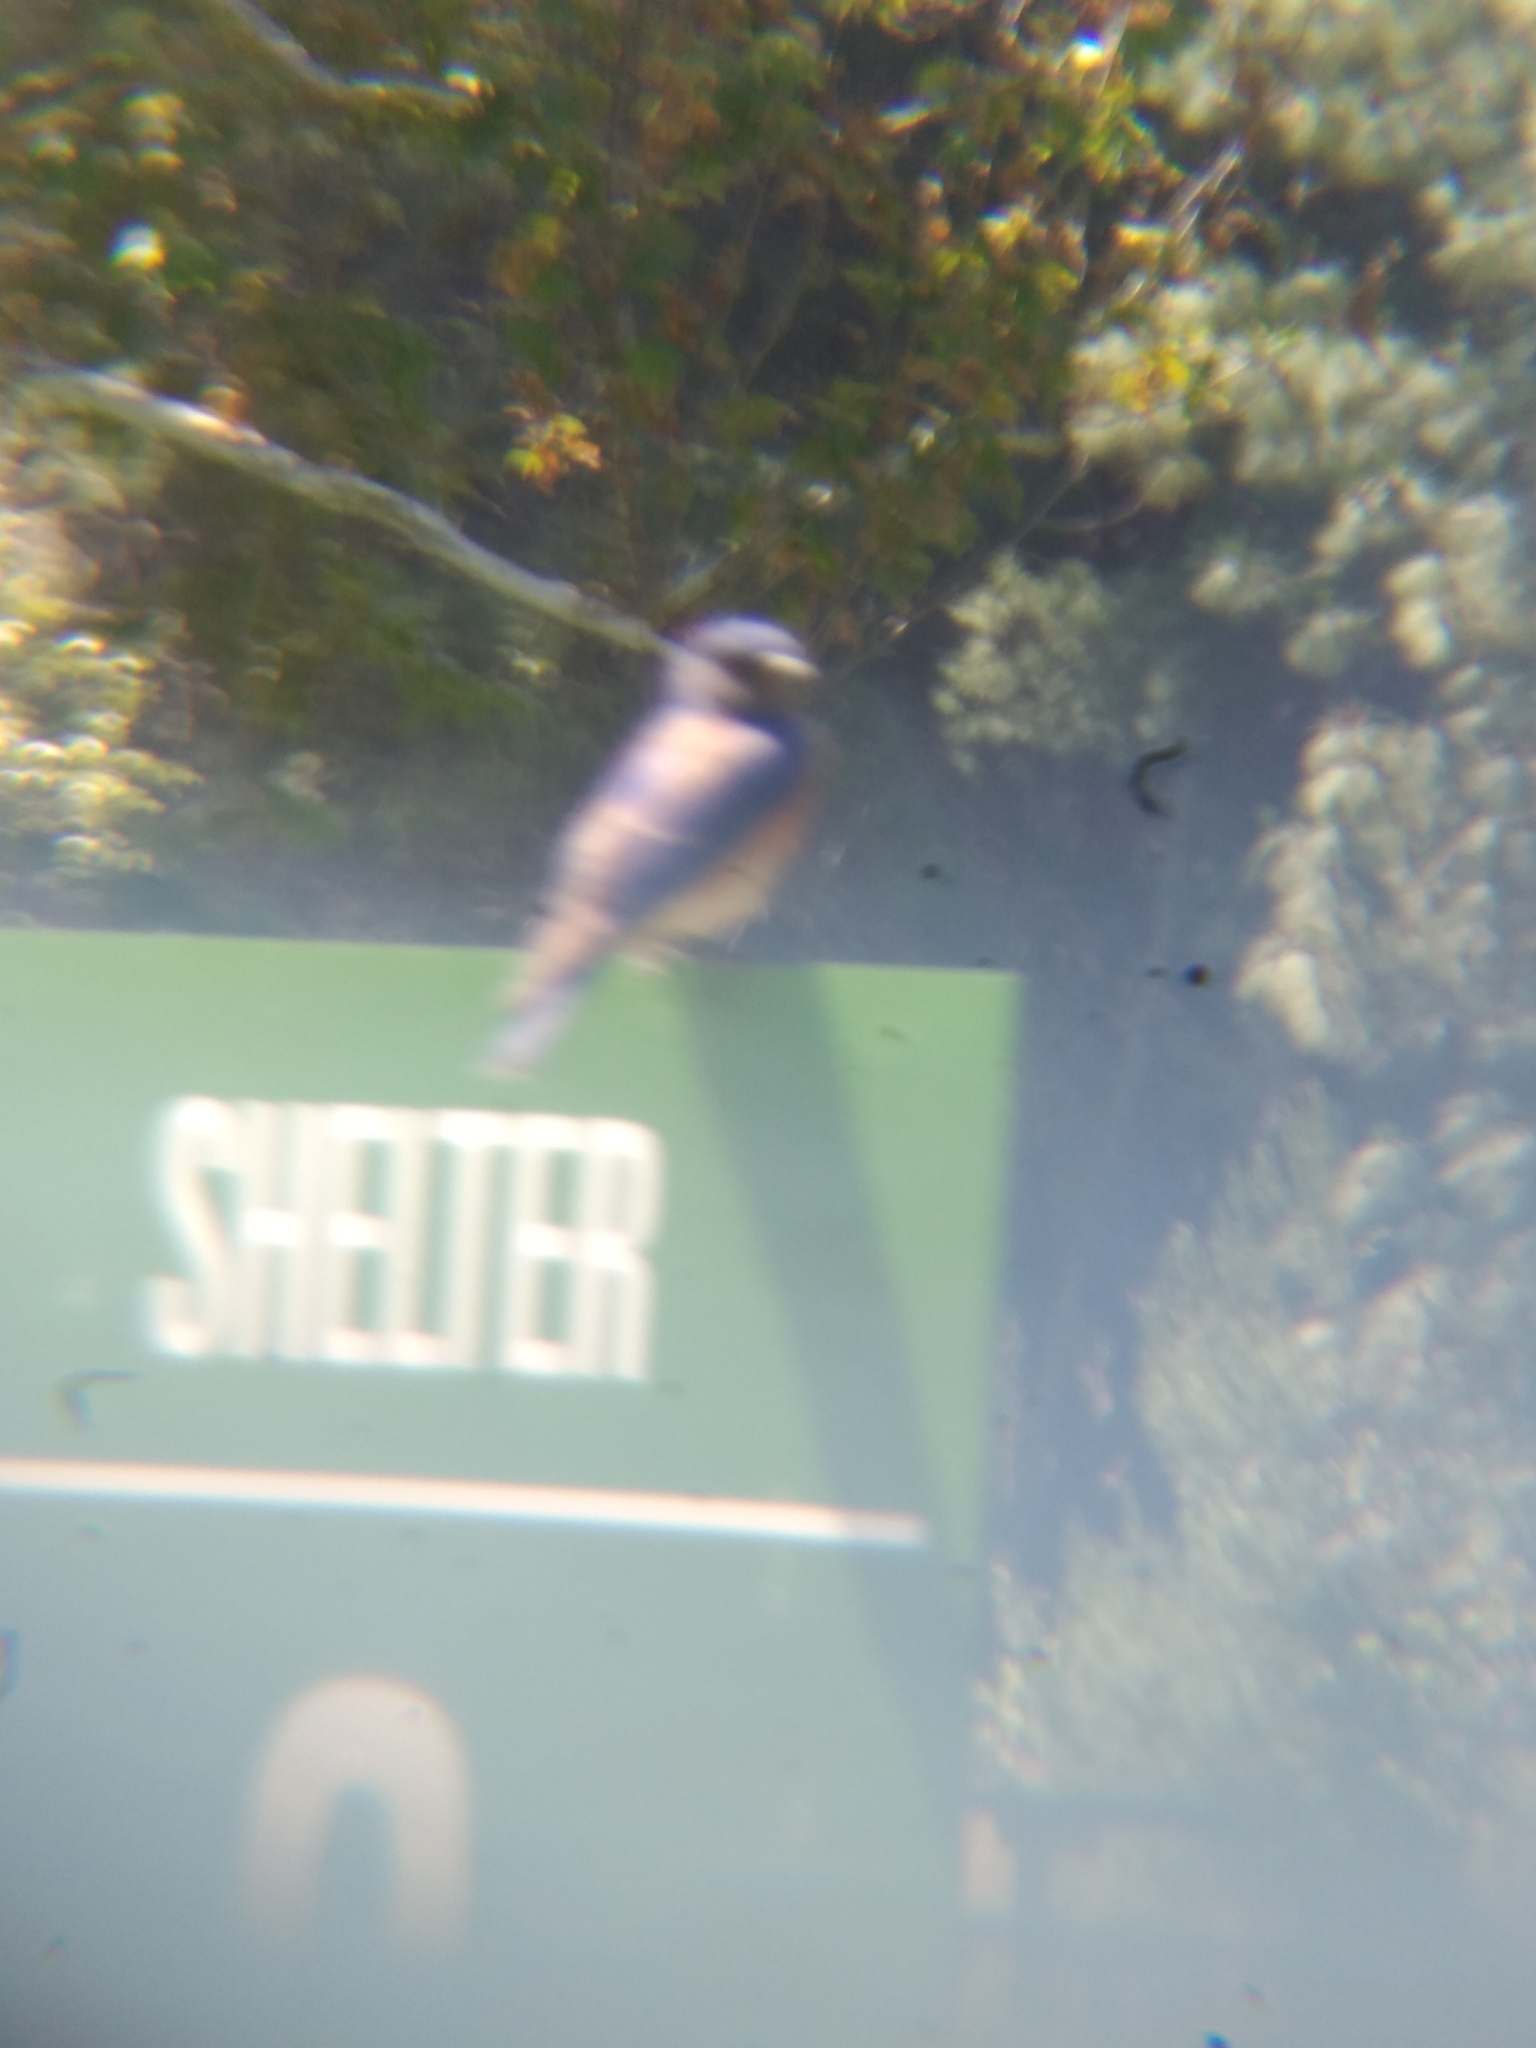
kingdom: Animalia
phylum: Chordata
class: Aves
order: Passeriformes
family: Turdidae
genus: Sialia
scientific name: Sialia mexicana
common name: Western bluebird
